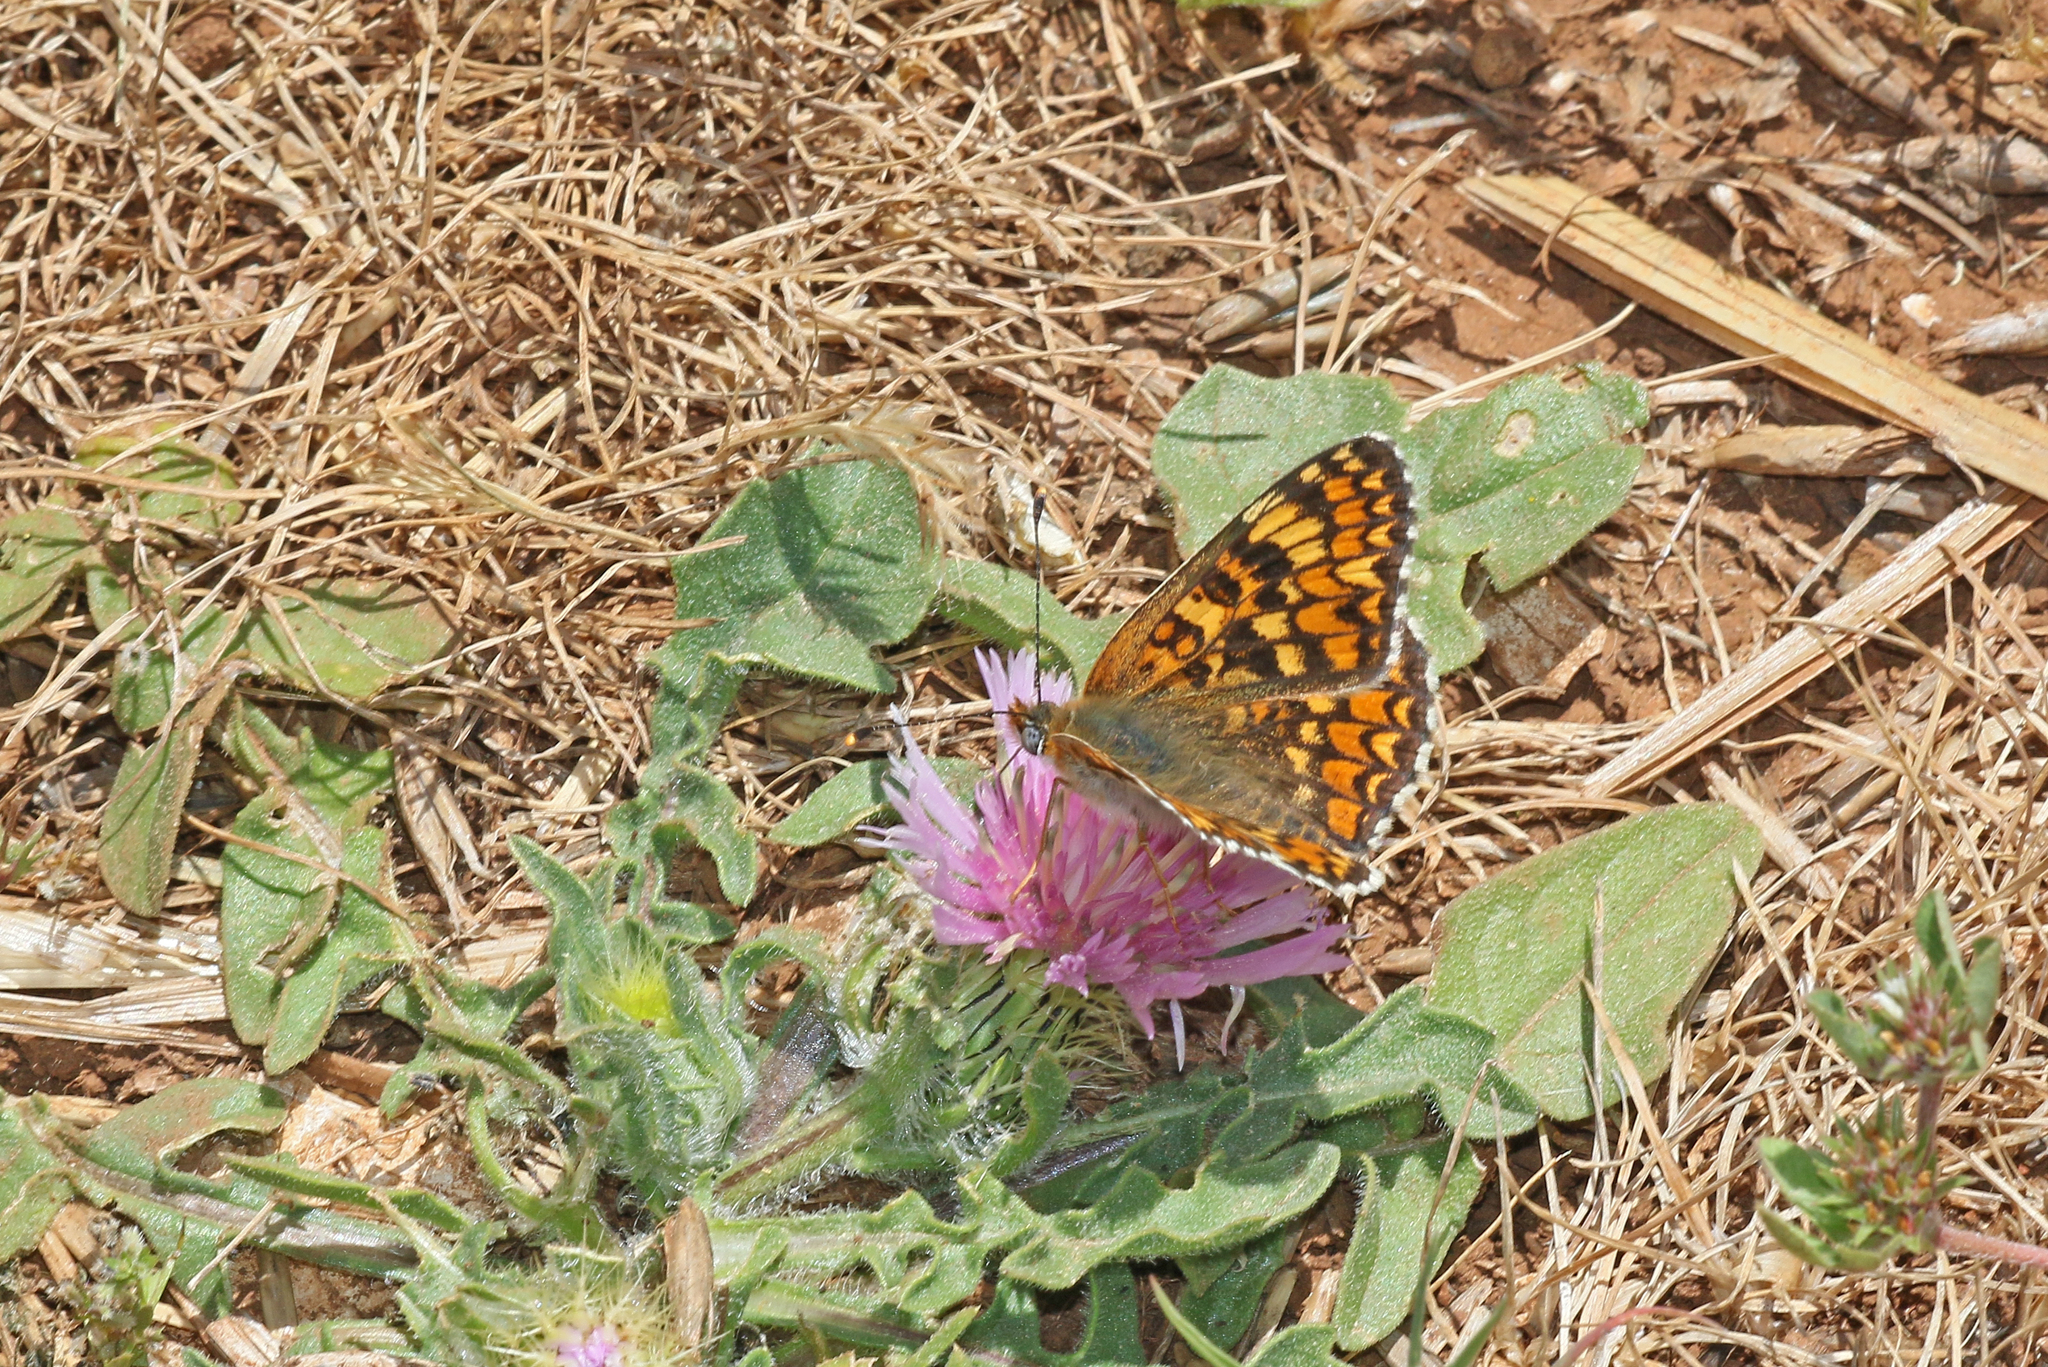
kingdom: Animalia
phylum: Arthropoda
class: Insecta
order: Lepidoptera
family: Nymphalidae
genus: Melitaea
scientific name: Melitaea phoebe
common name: Knapweed fritillary
